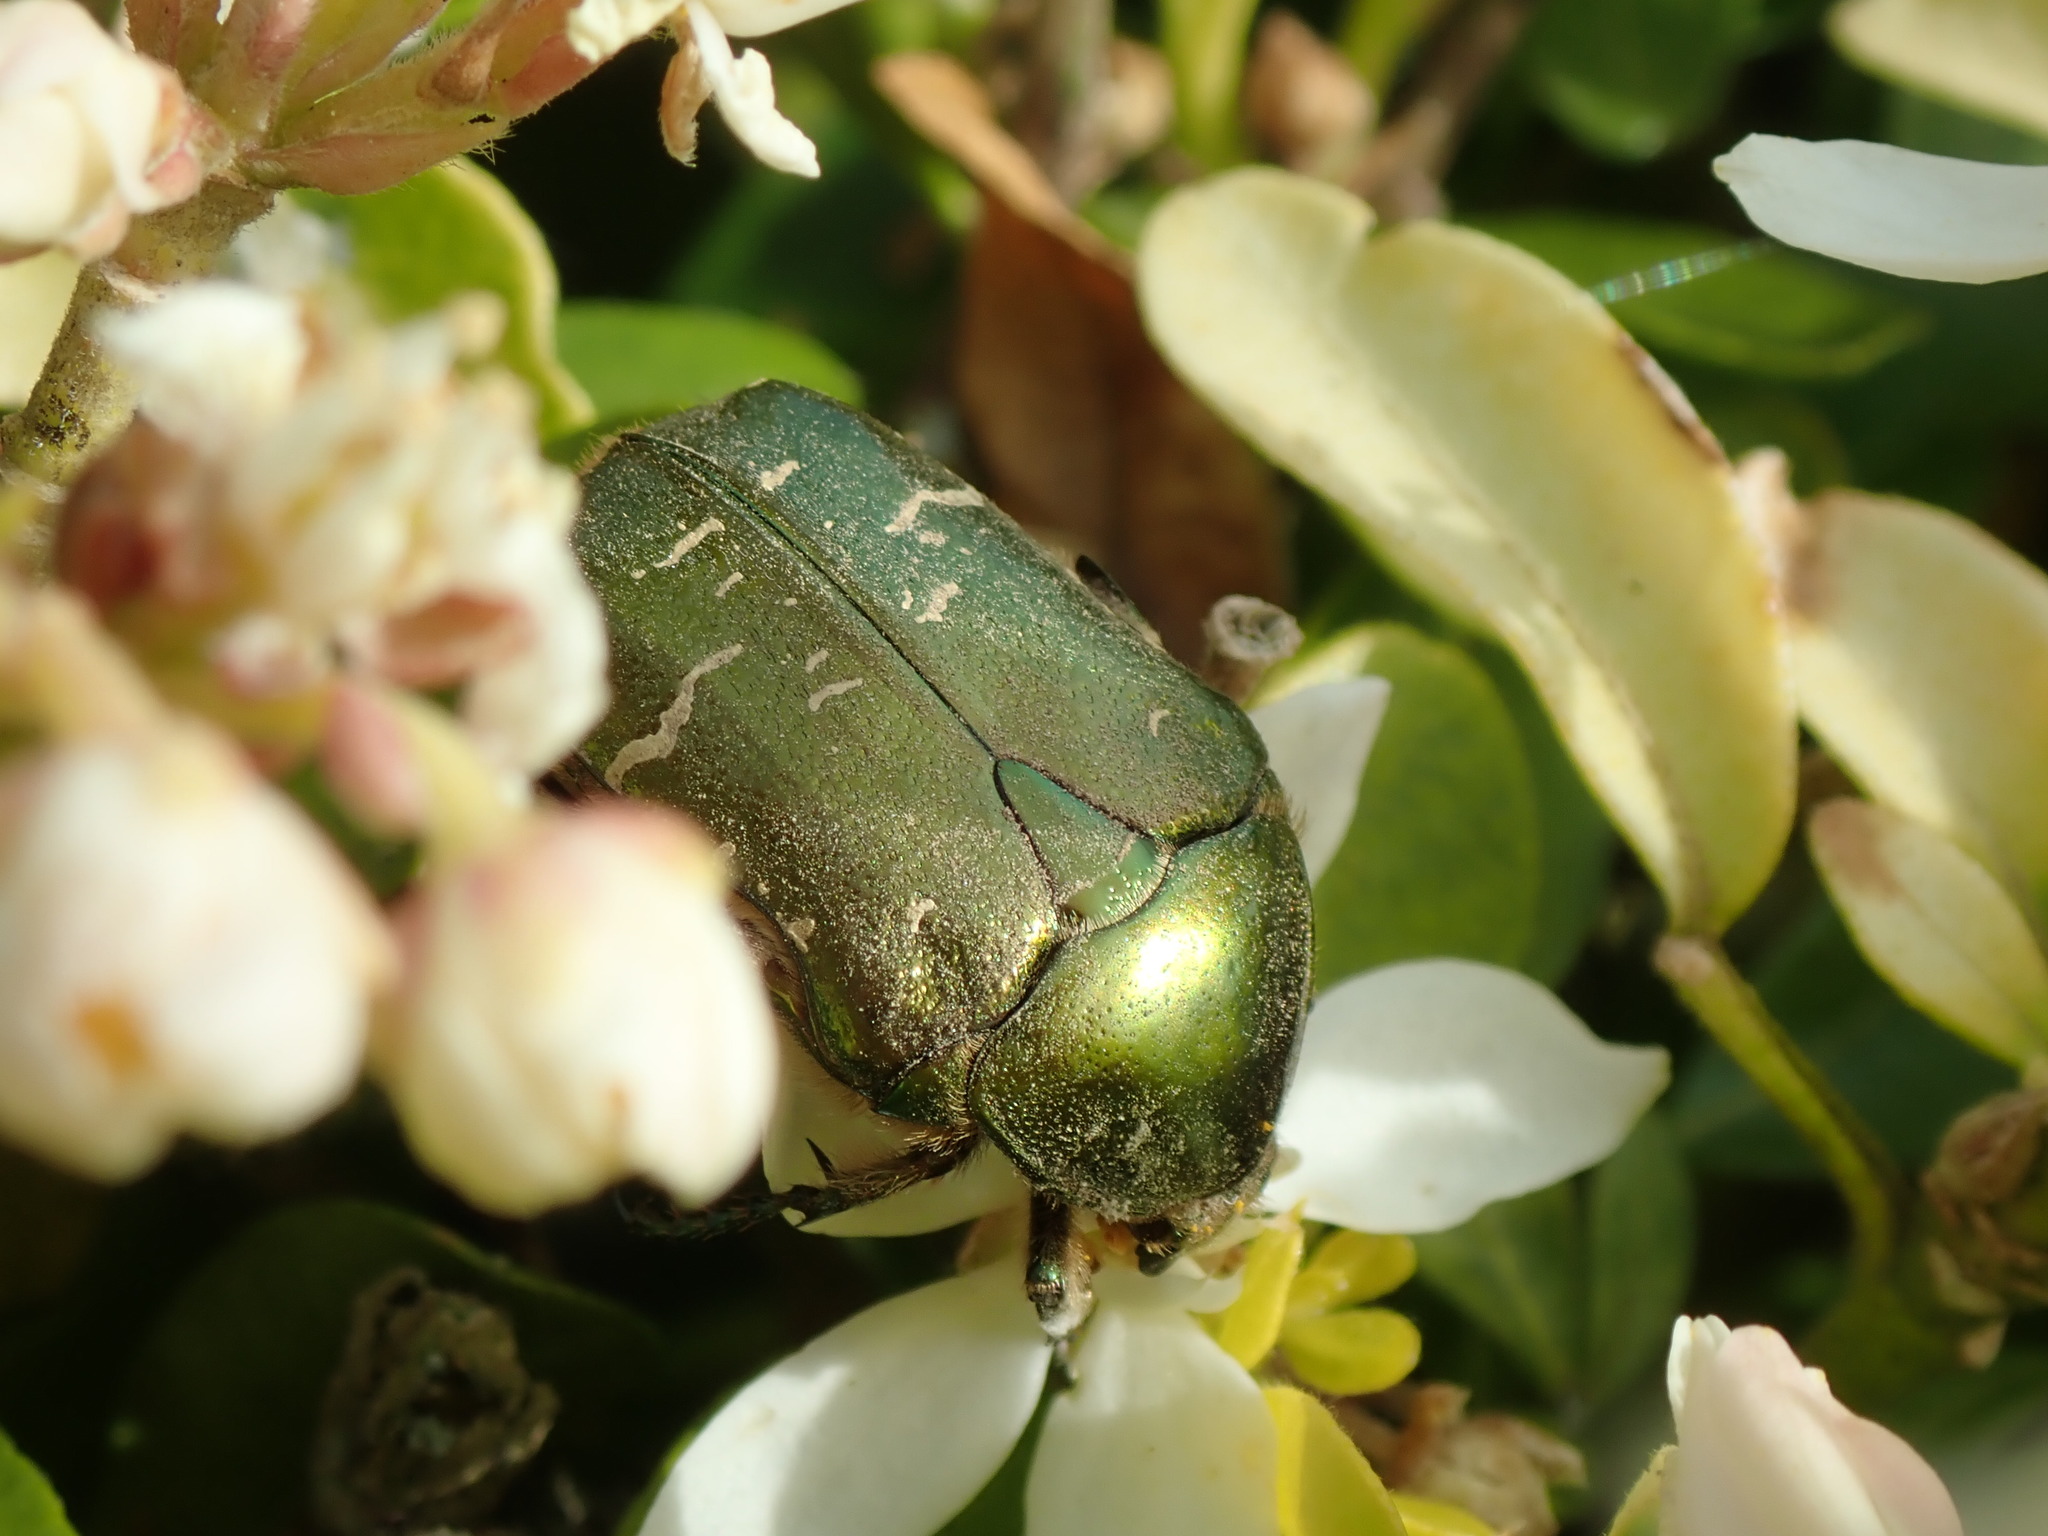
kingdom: Animalia
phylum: Arthropoda
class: Insecta
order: Coleoptera
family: Scarabaeidae
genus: Cetonia
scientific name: Cetonia aurata
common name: Rose chafer
